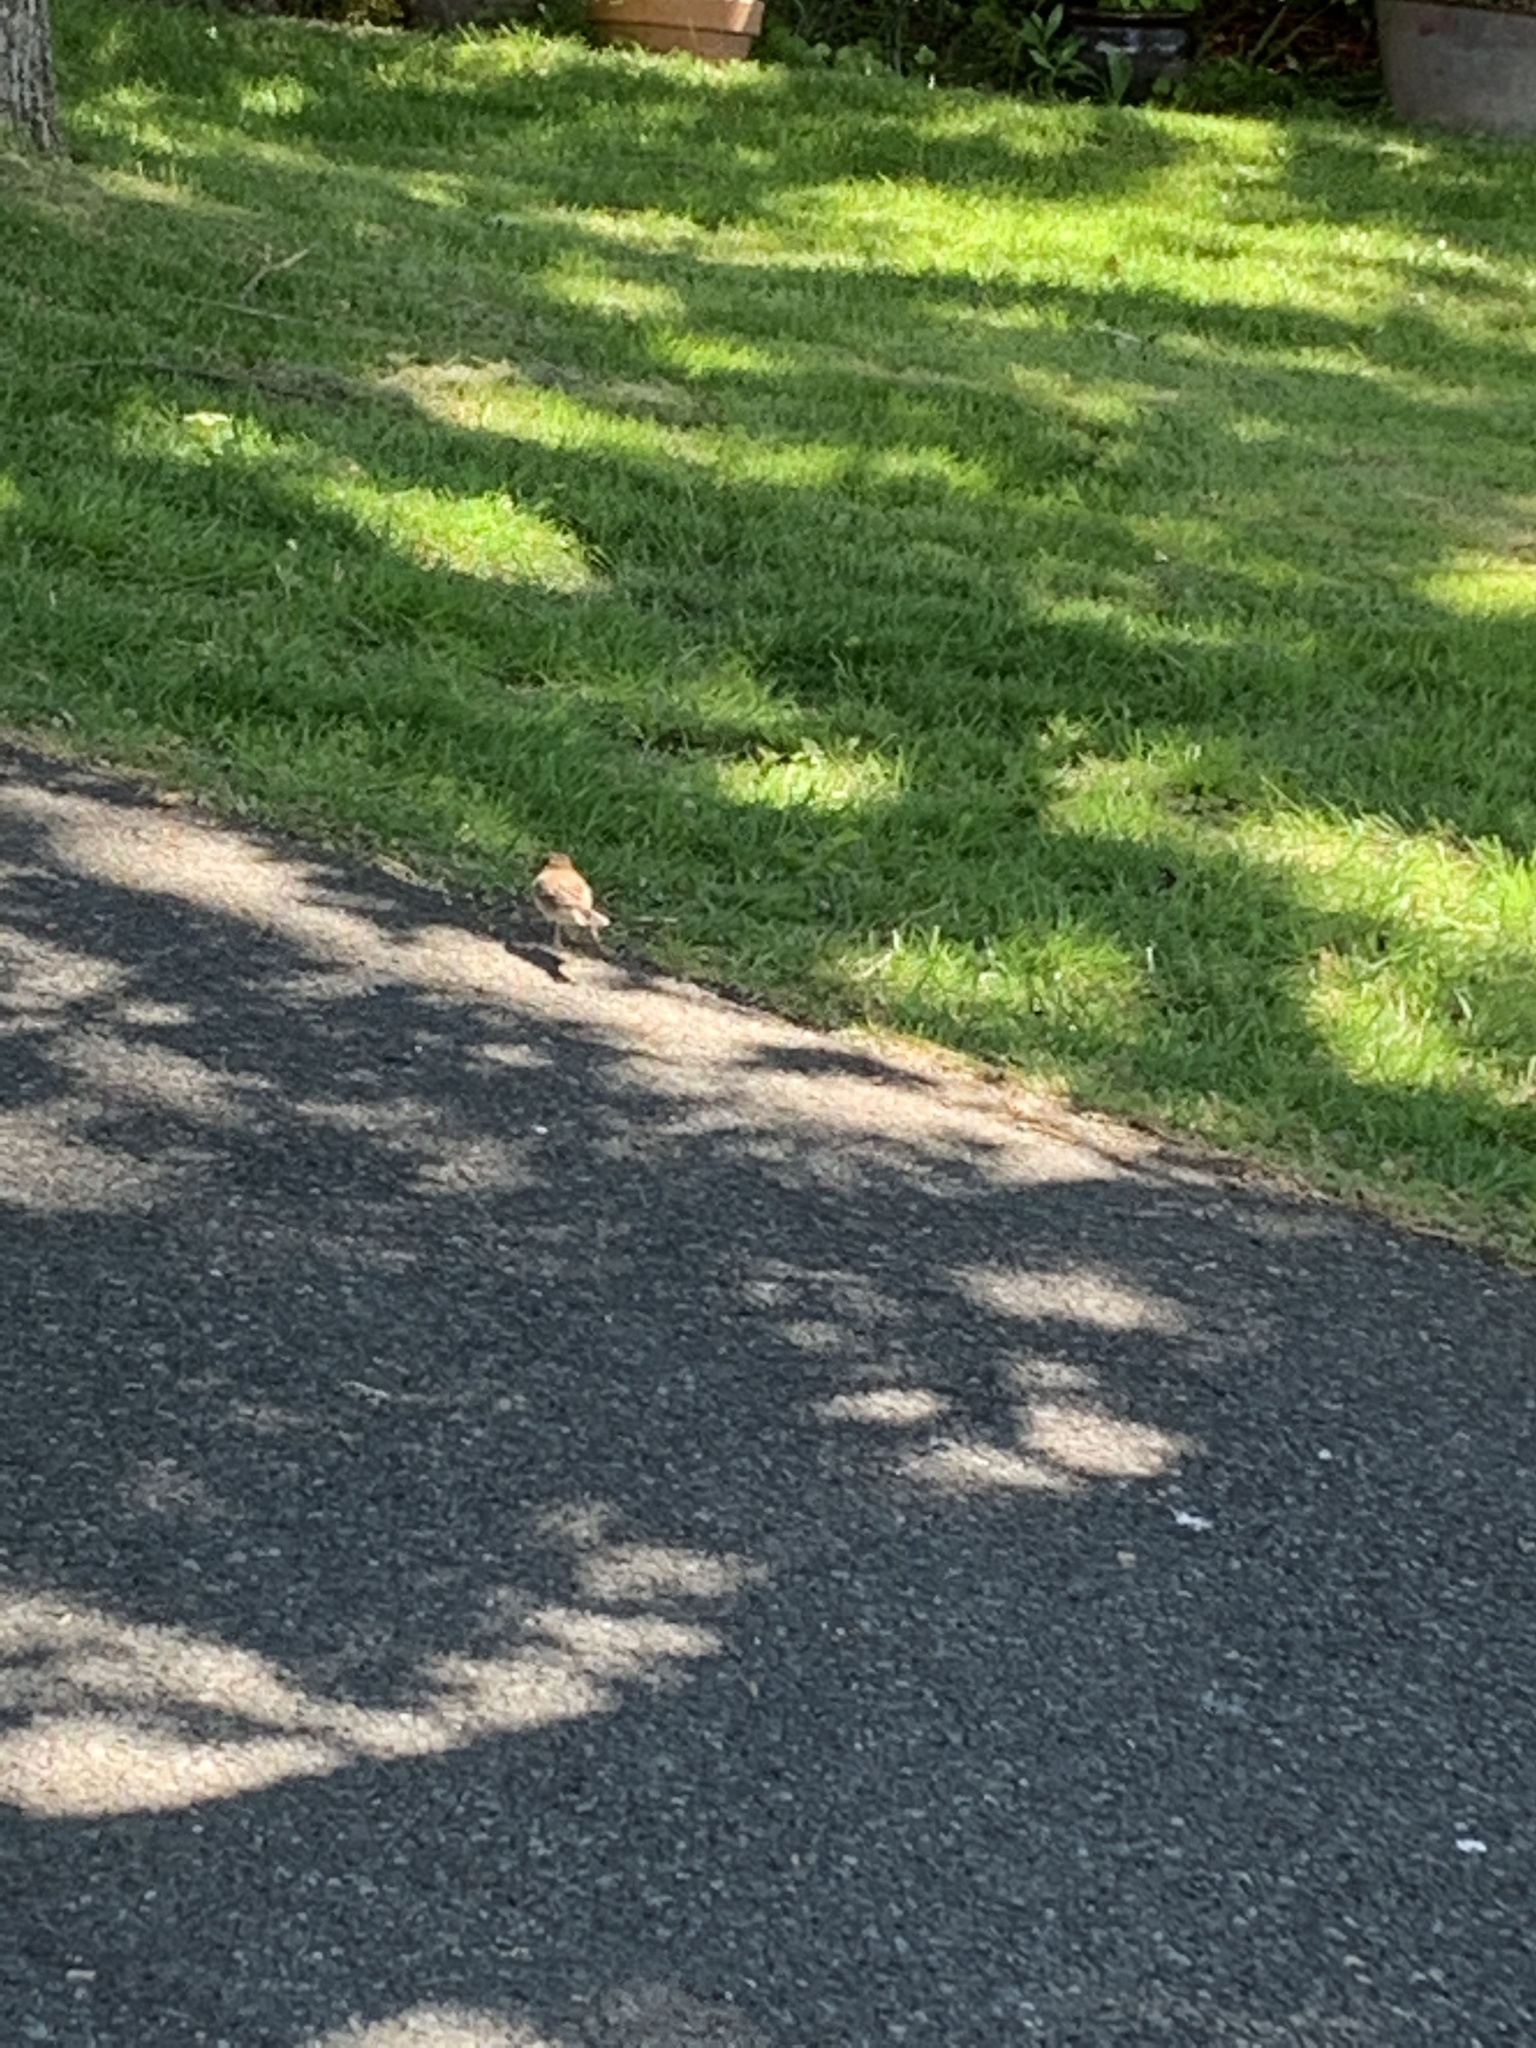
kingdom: Animalia
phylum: Chordata
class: Aves
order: Passeriformes
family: Passerellidae
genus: Junco
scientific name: Junco hyemalis
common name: Dark-eyed junco
